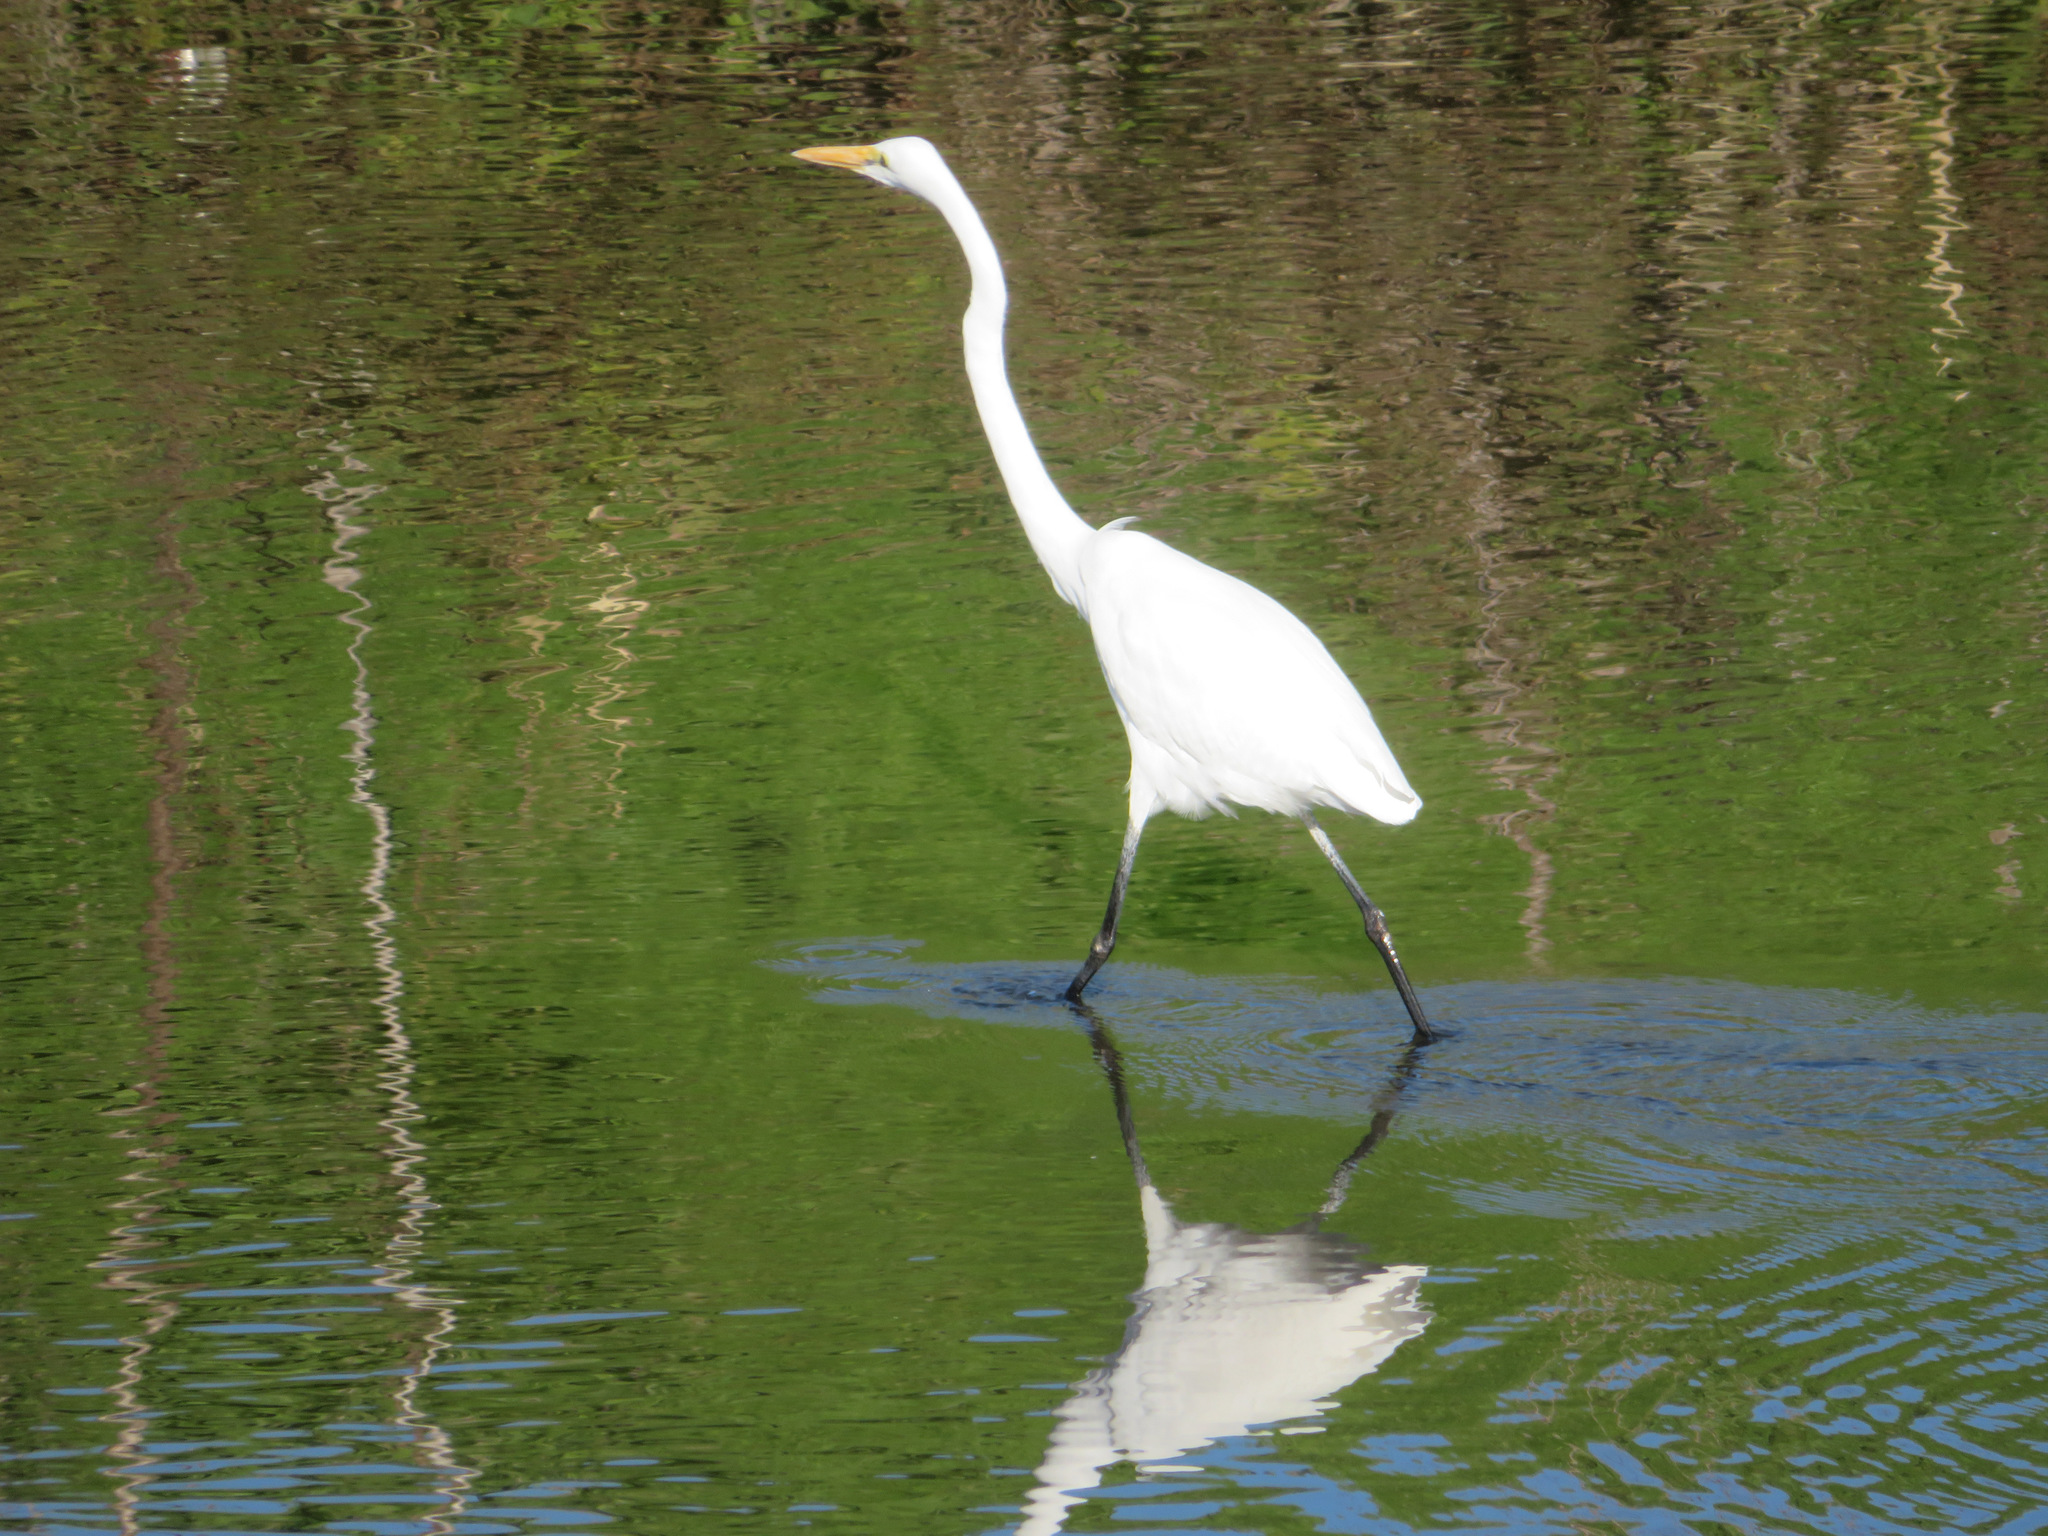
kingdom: Animalia
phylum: Chordata
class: Aves
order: Pelecaniformes
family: Ardeidae
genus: Ardea
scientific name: Ardea alba
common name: Great egret
